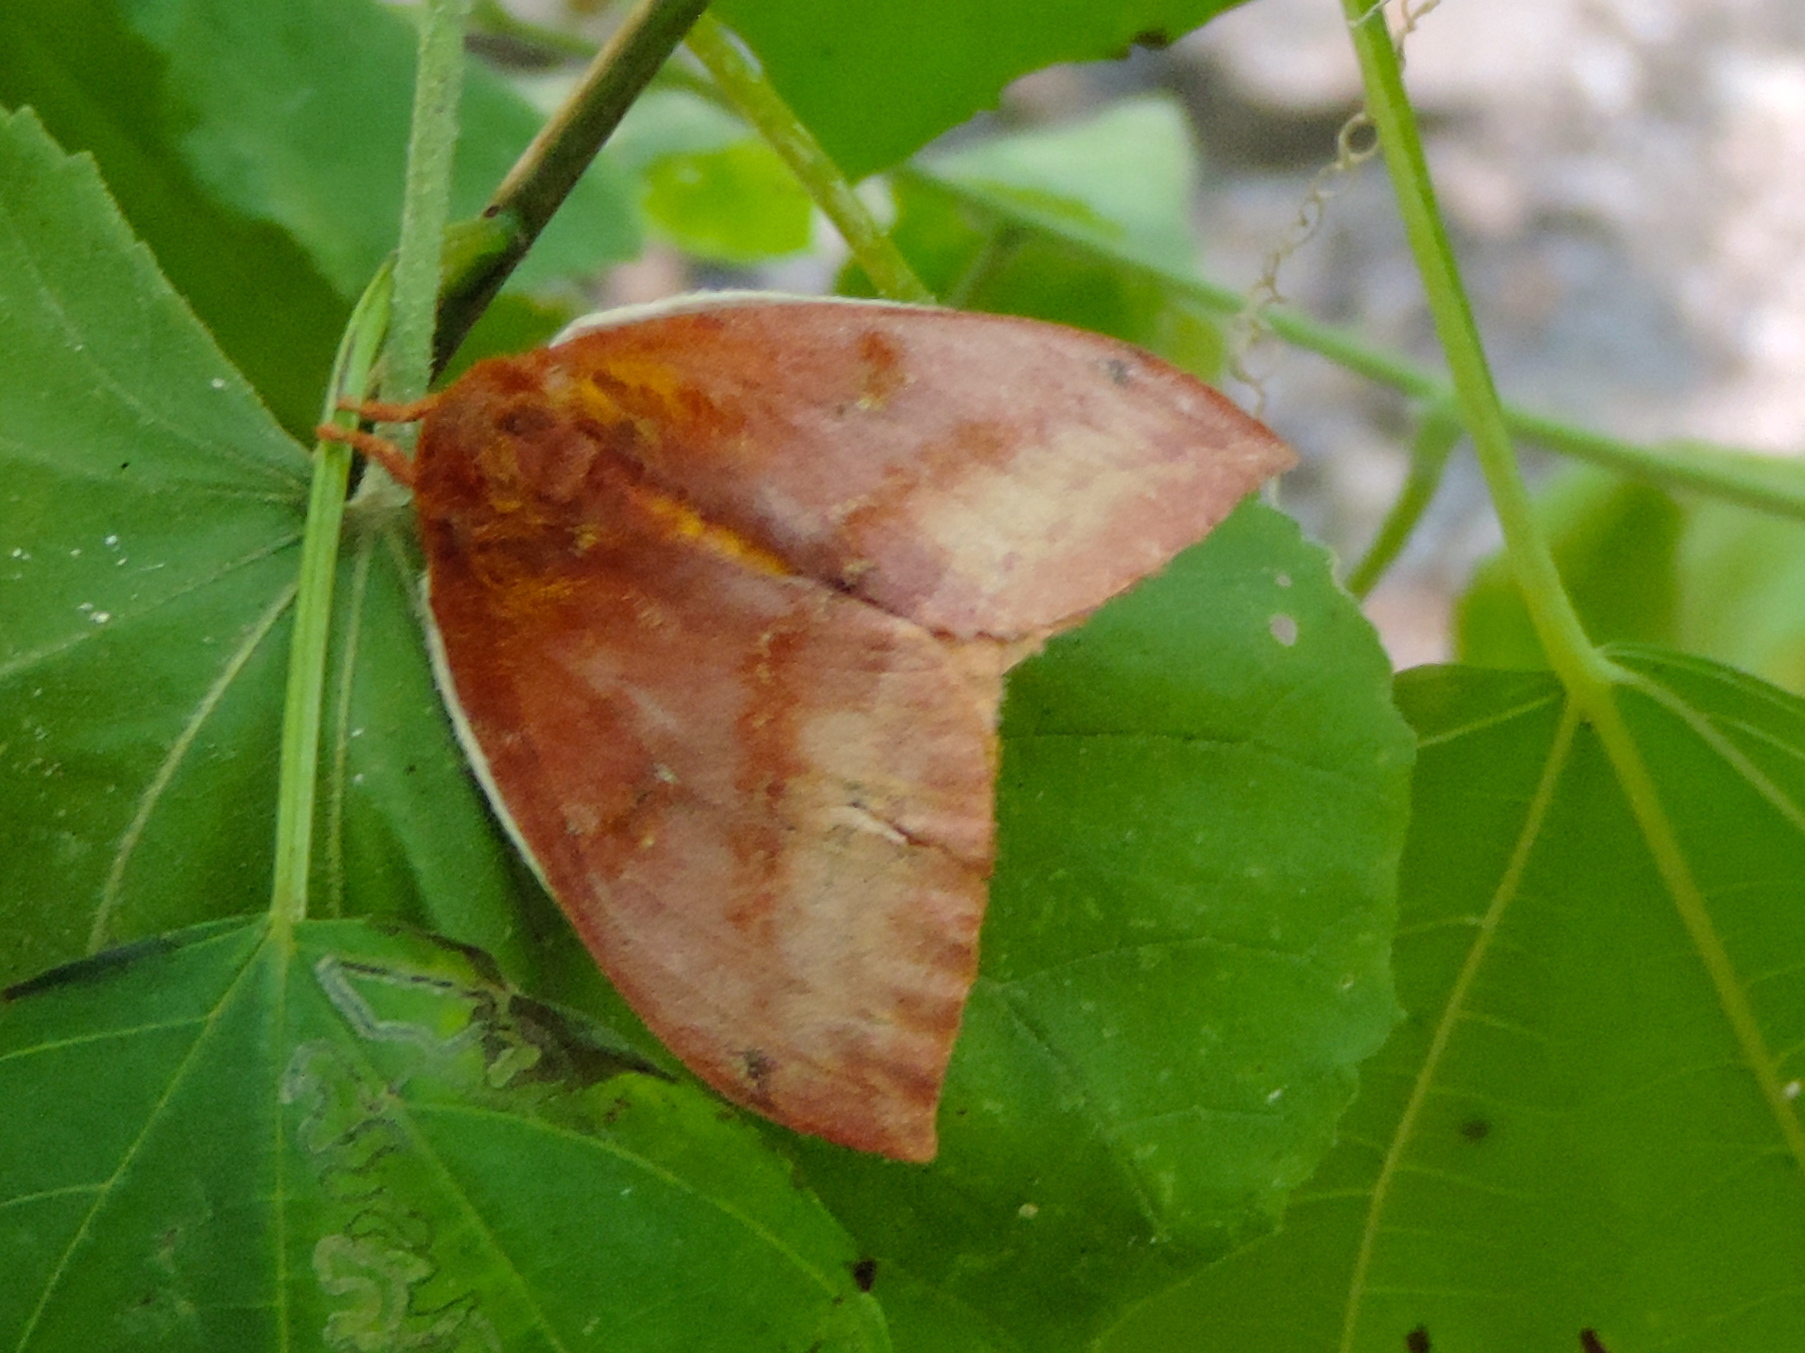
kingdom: Animalia
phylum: Arthropoda
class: Insecta
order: Lepidoptera
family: Saturniidae
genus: Automeris
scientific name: Automeris
